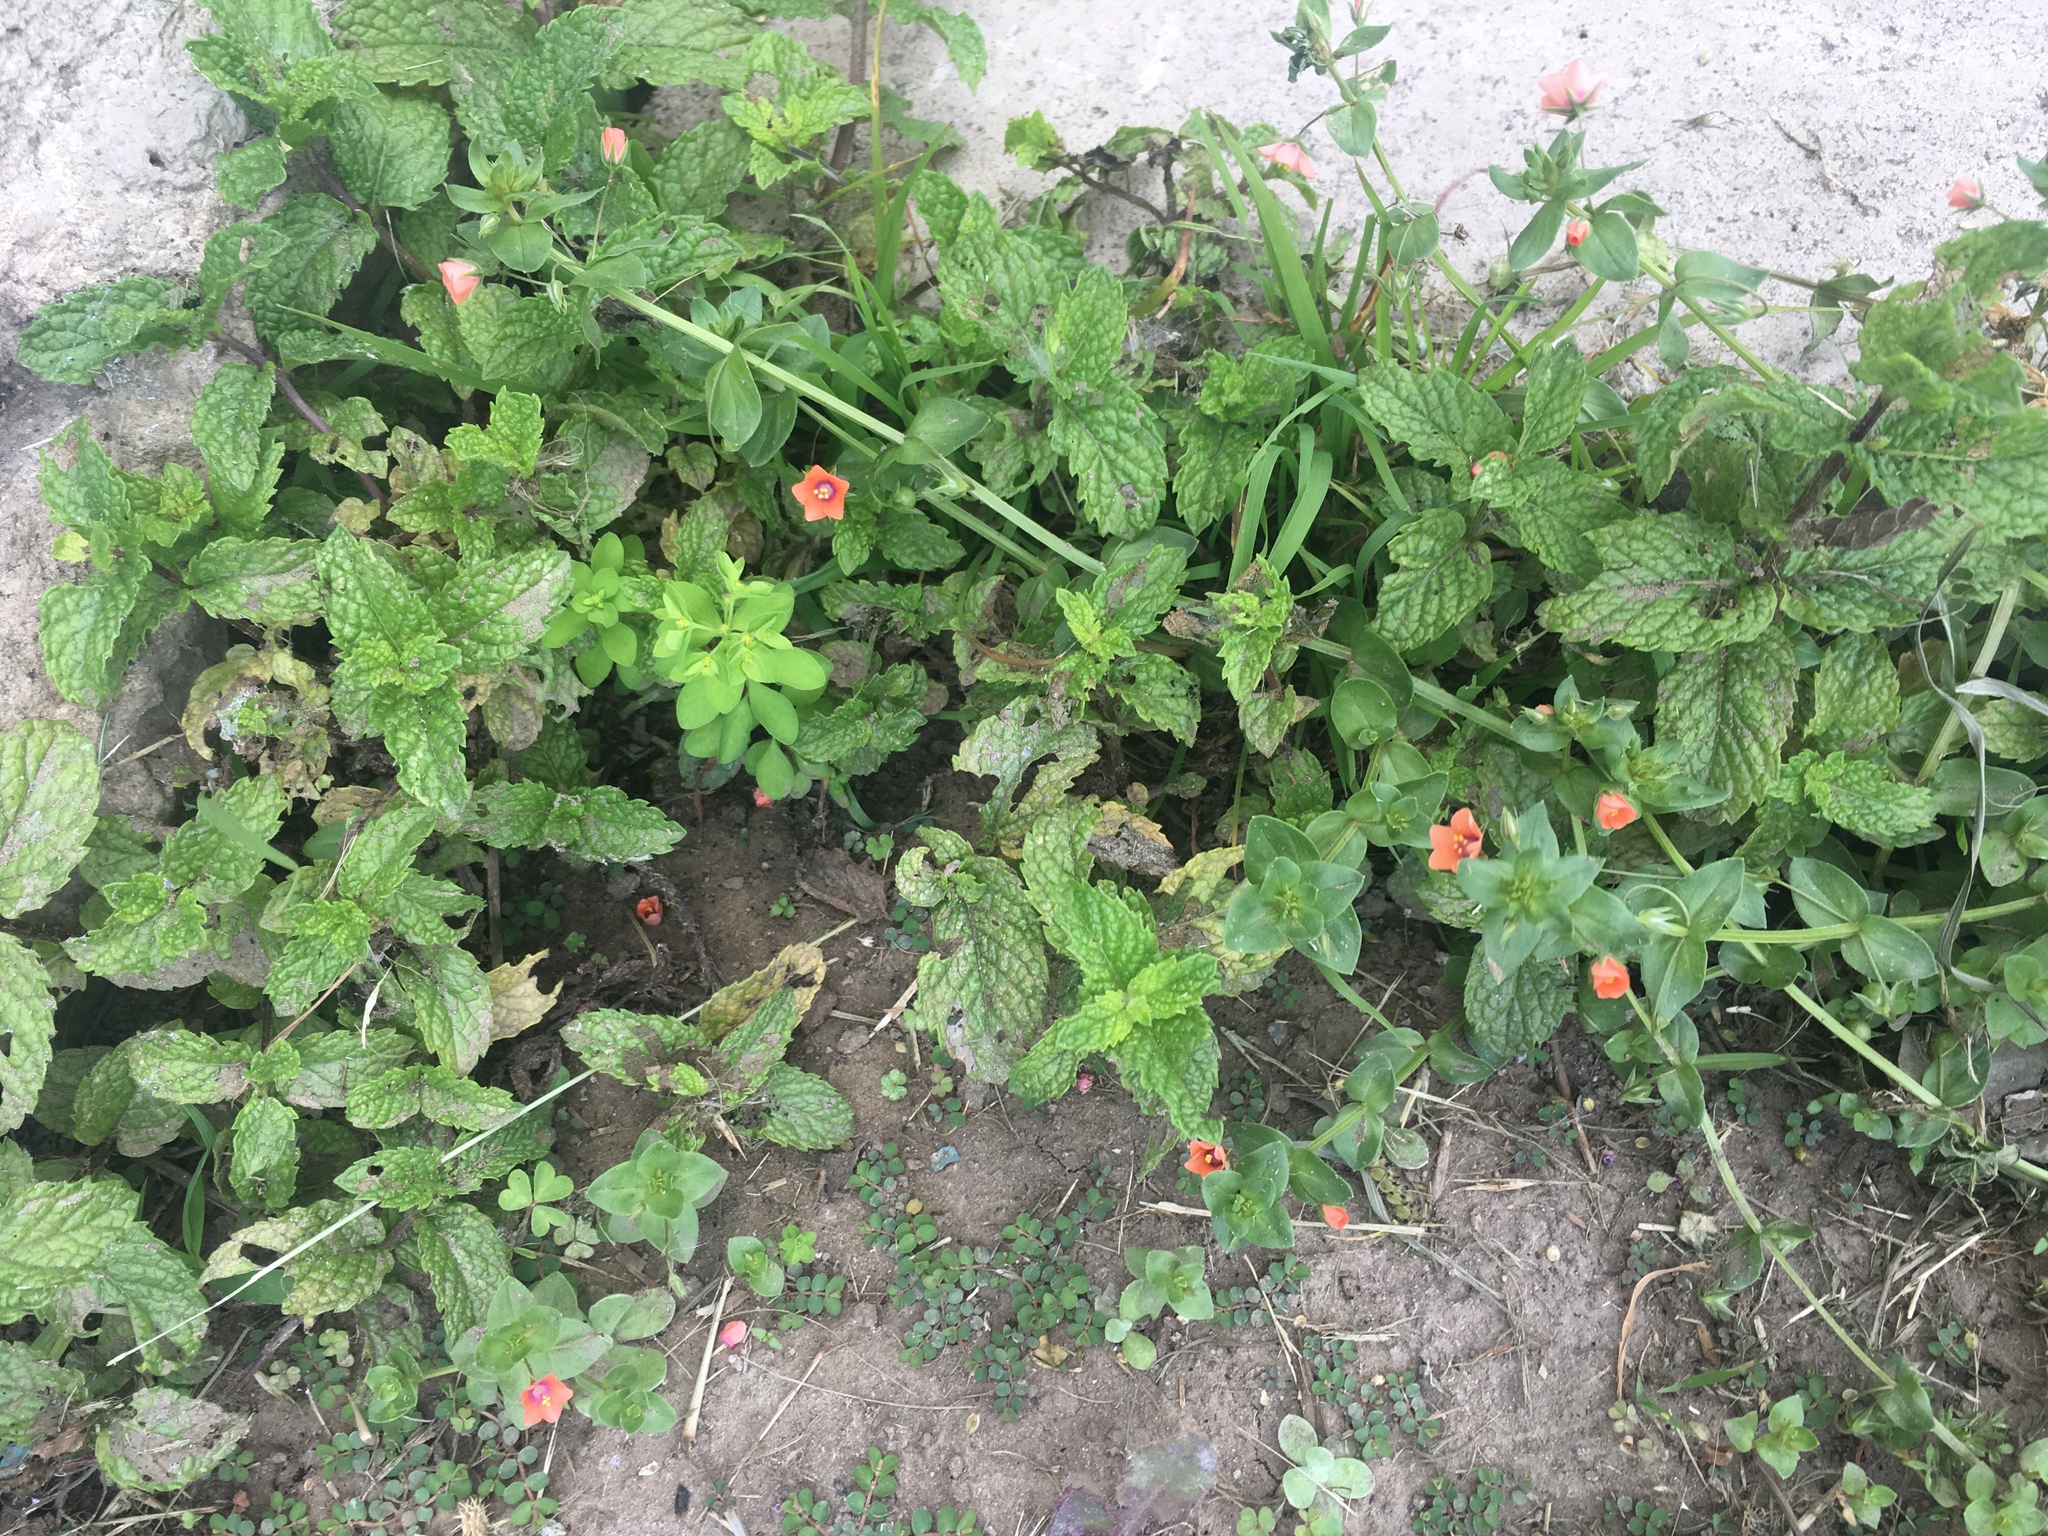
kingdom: Plantae
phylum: Tracheophyta
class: Magnoliopsida
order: Ericales
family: Primulaceae
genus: Lysimachia
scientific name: Lysimachia arvensis
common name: Scarlet pimpernel
